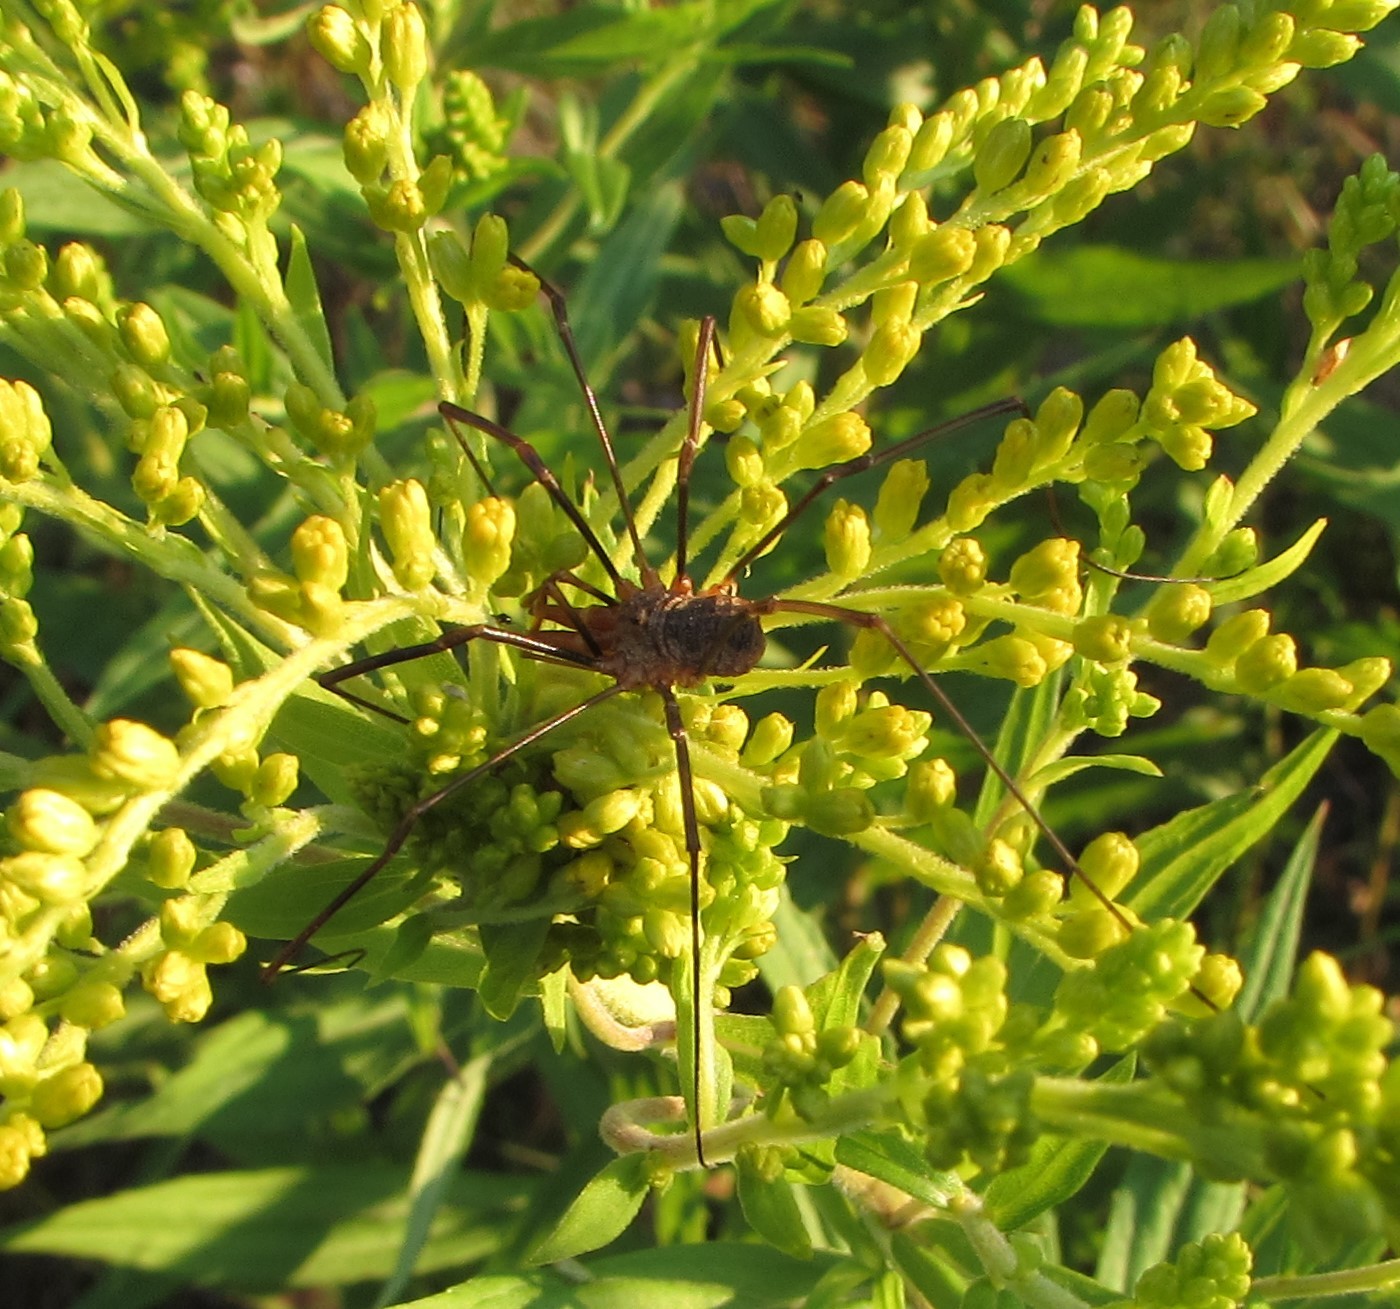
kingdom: Animalia
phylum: Arthropoda
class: Arachnida
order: Opiliones
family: Phalangiidae
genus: Phalangium
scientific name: Phalangium opilio
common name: Daddy longleg
